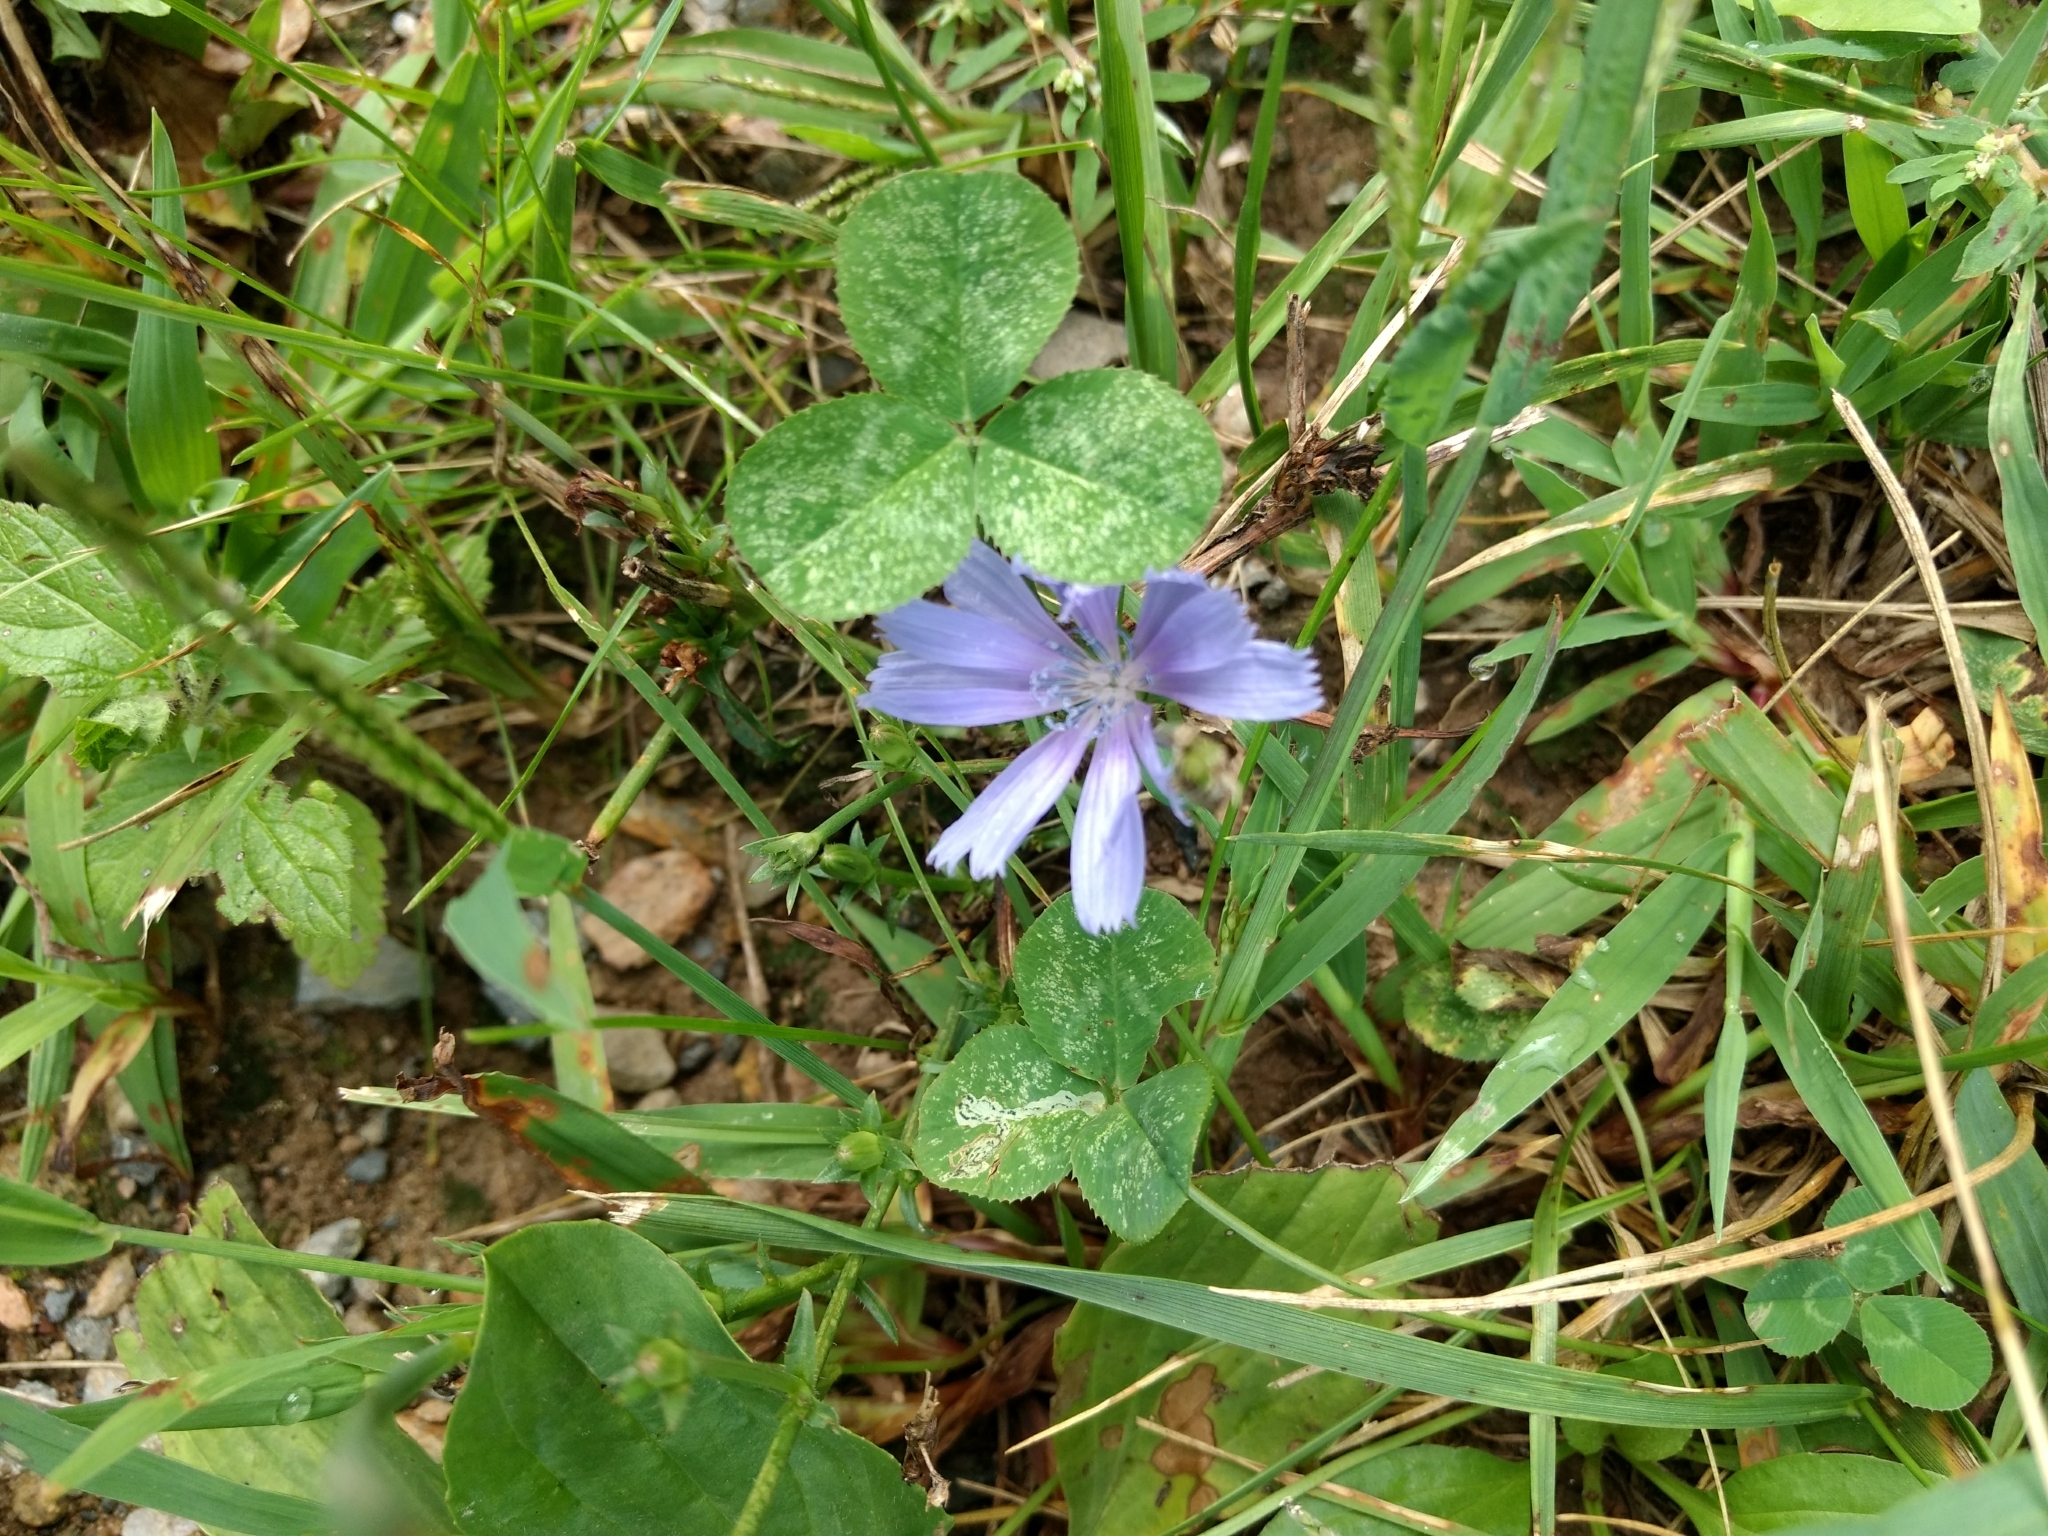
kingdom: Plantae
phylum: Tracheophyta
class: Magnoliopsida
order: Asterales
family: Asteraceae
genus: Cichorium
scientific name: Cichorium intybus
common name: Chicory
